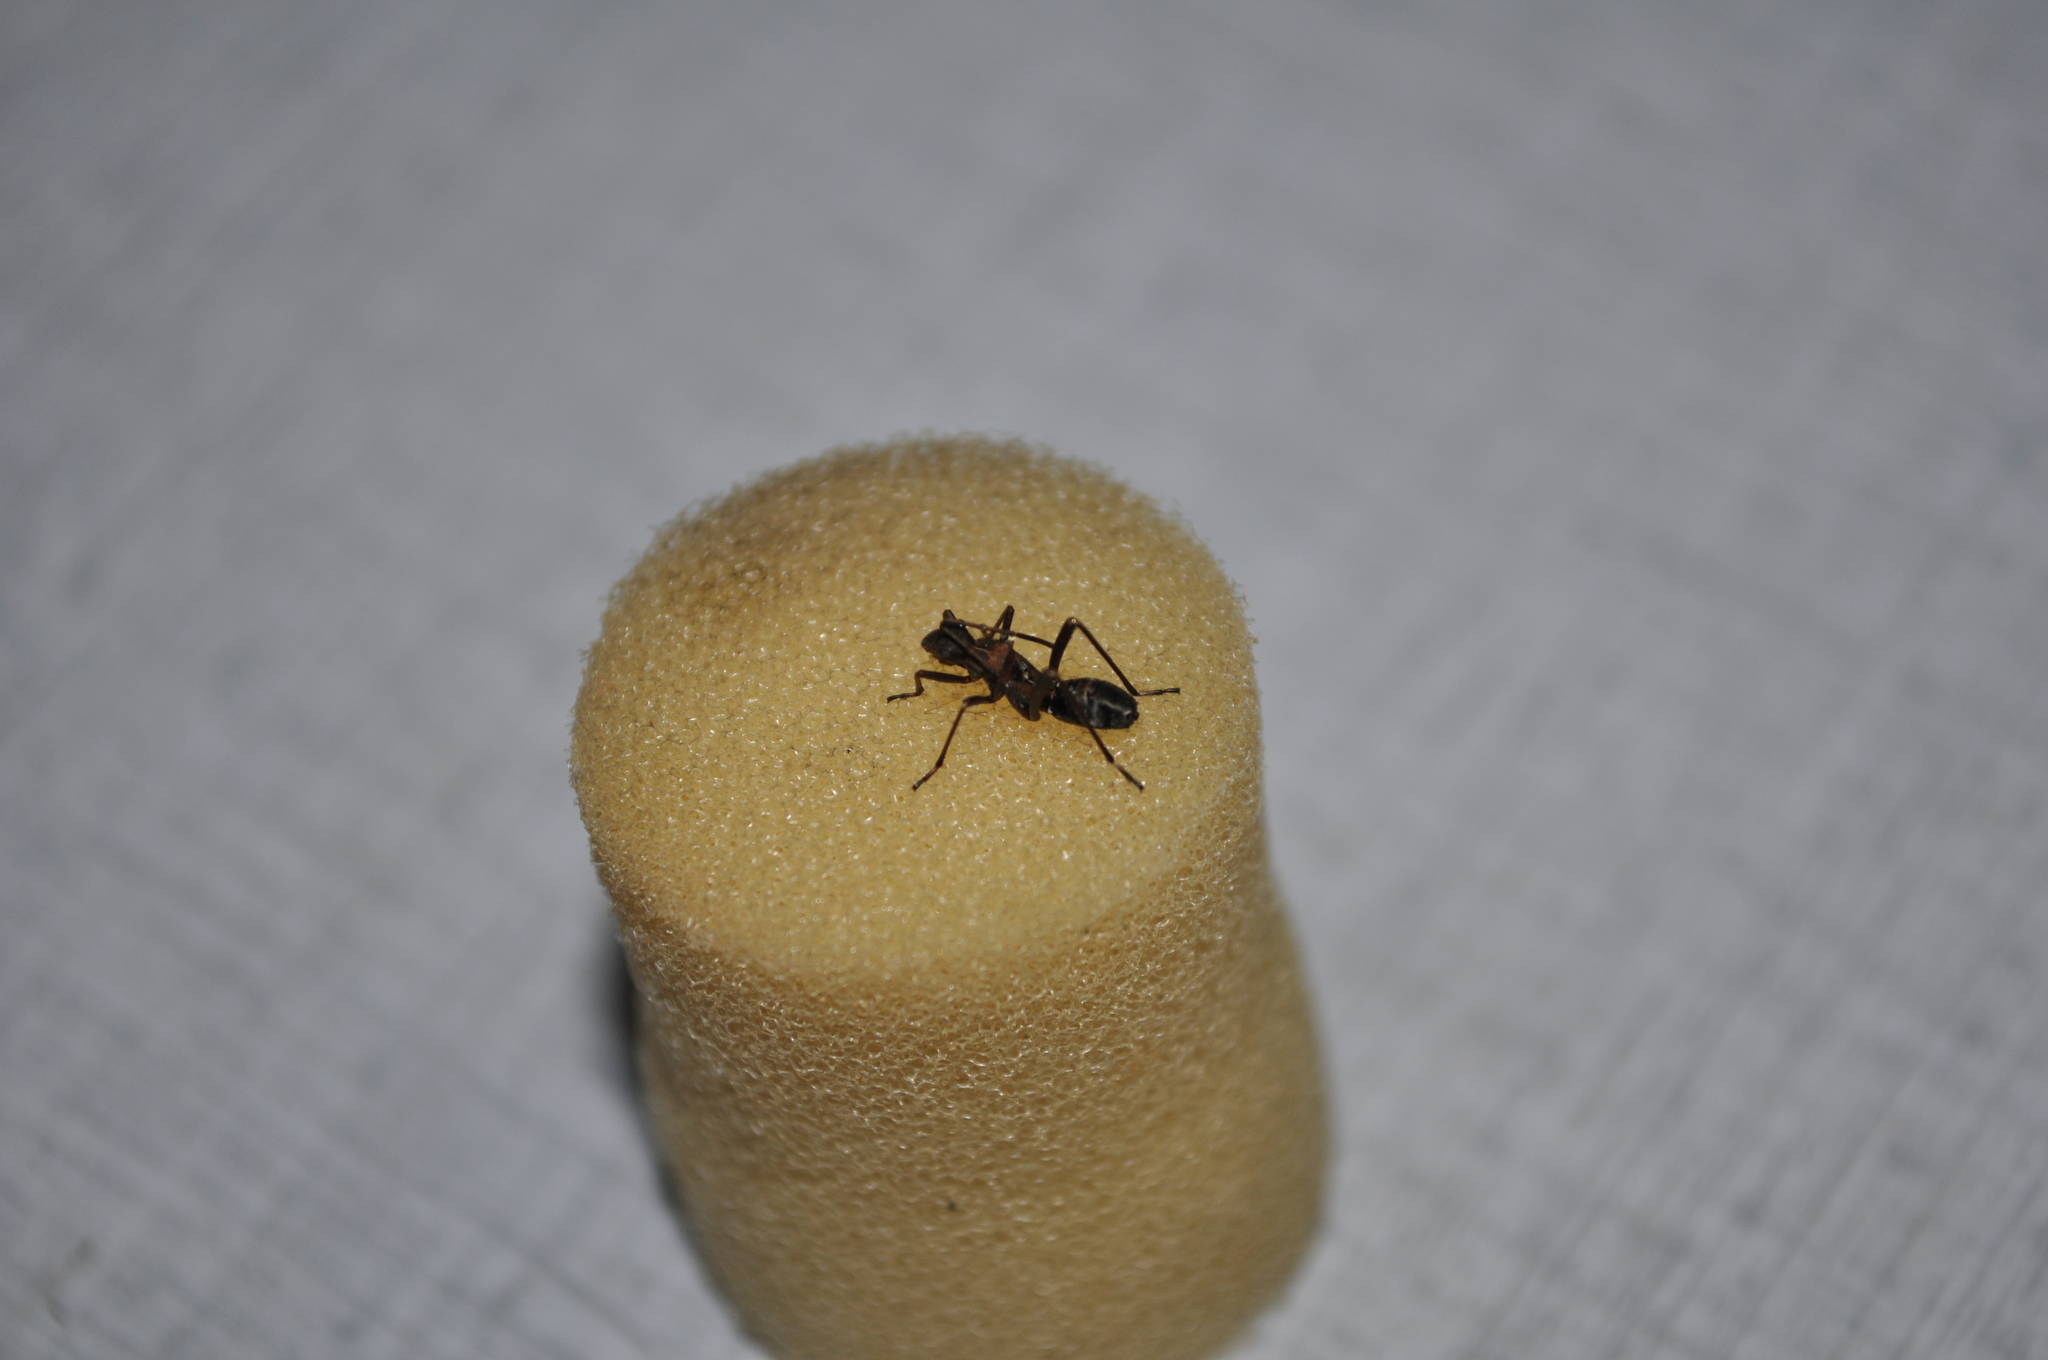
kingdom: Animalia
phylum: Arthropoda
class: Insecta
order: Hemiptera
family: Alydidae
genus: Alydus
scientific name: Alydus calcaratus
